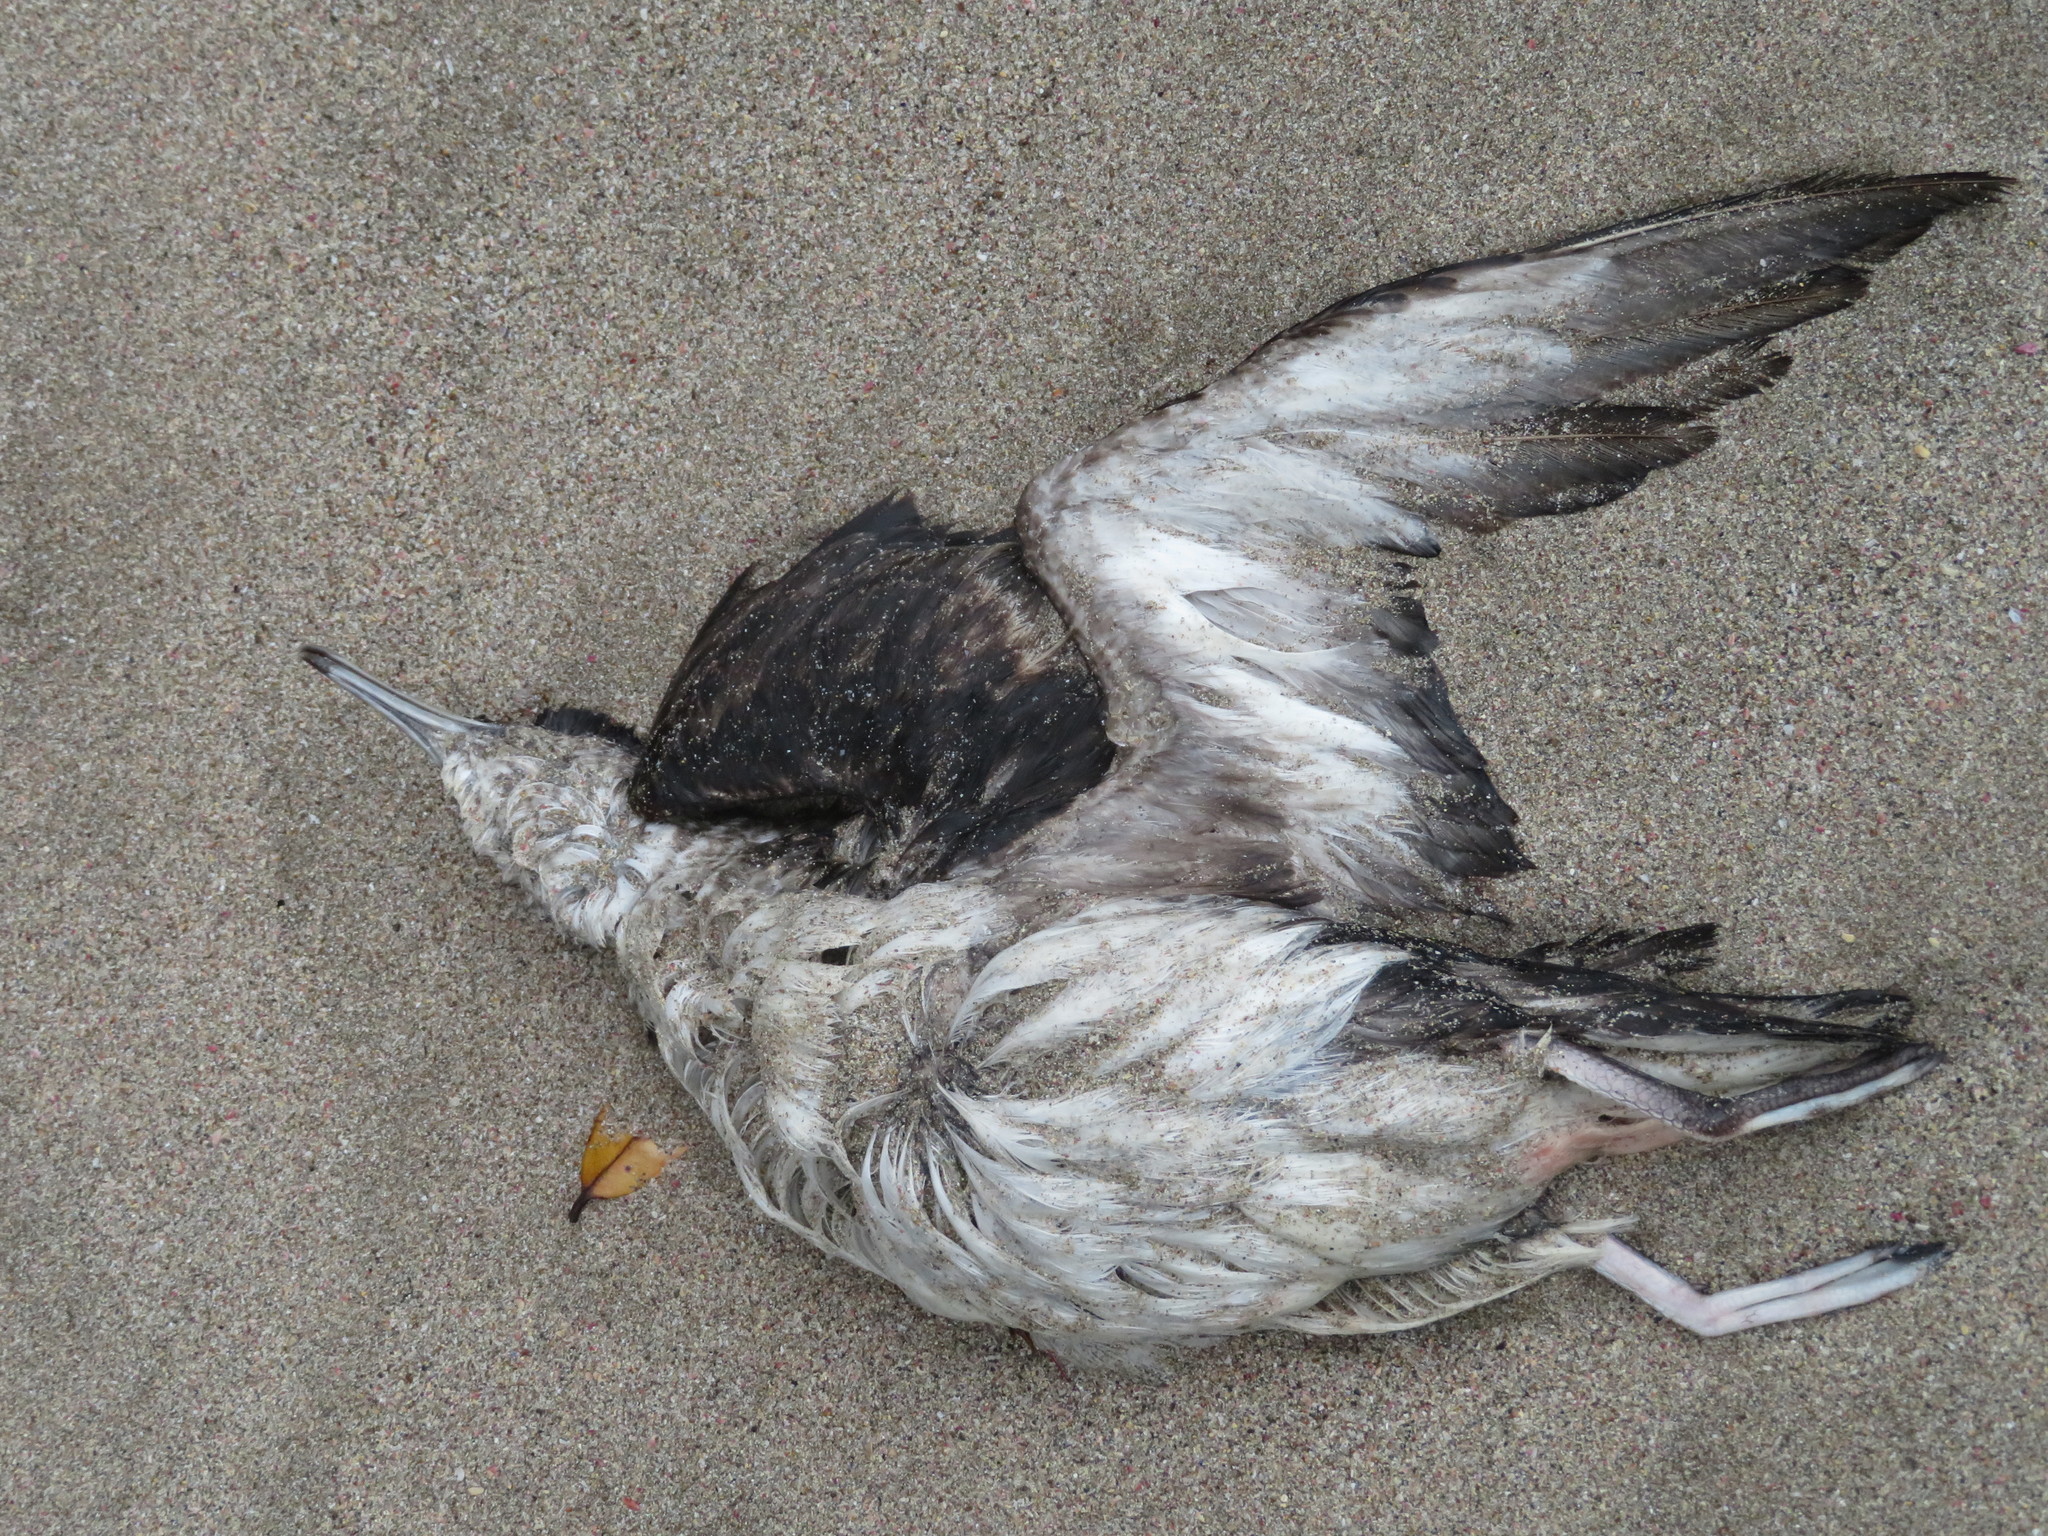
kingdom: Animalia
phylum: Chordata
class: Aves
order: Procellariiformes
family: Procellariidae
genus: Puffinus
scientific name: Puffinus gavia
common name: Fluttering shearwater
